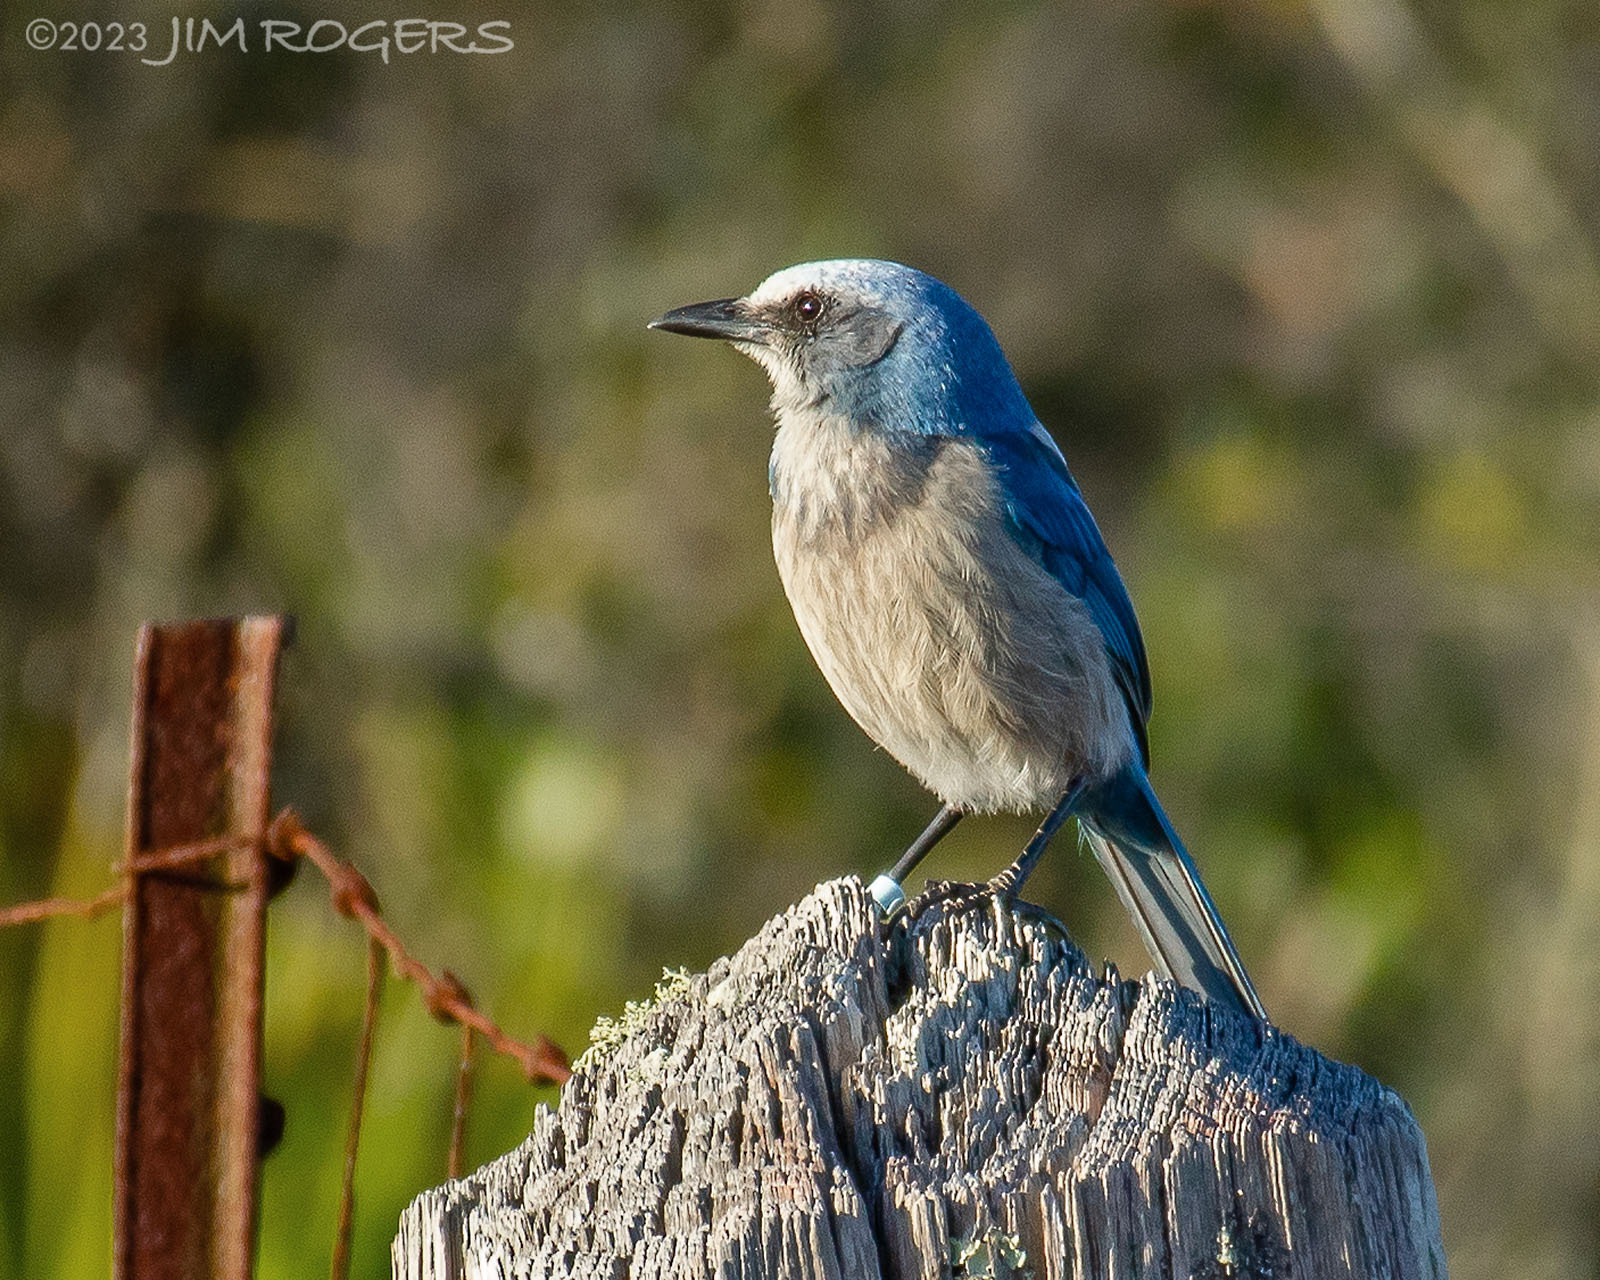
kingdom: Animalia
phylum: Chordata
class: Aves
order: Passeriformes
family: Corvidae
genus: Aphelocoma
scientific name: Aphelocoma coerulescens
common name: Florida scrub jay
